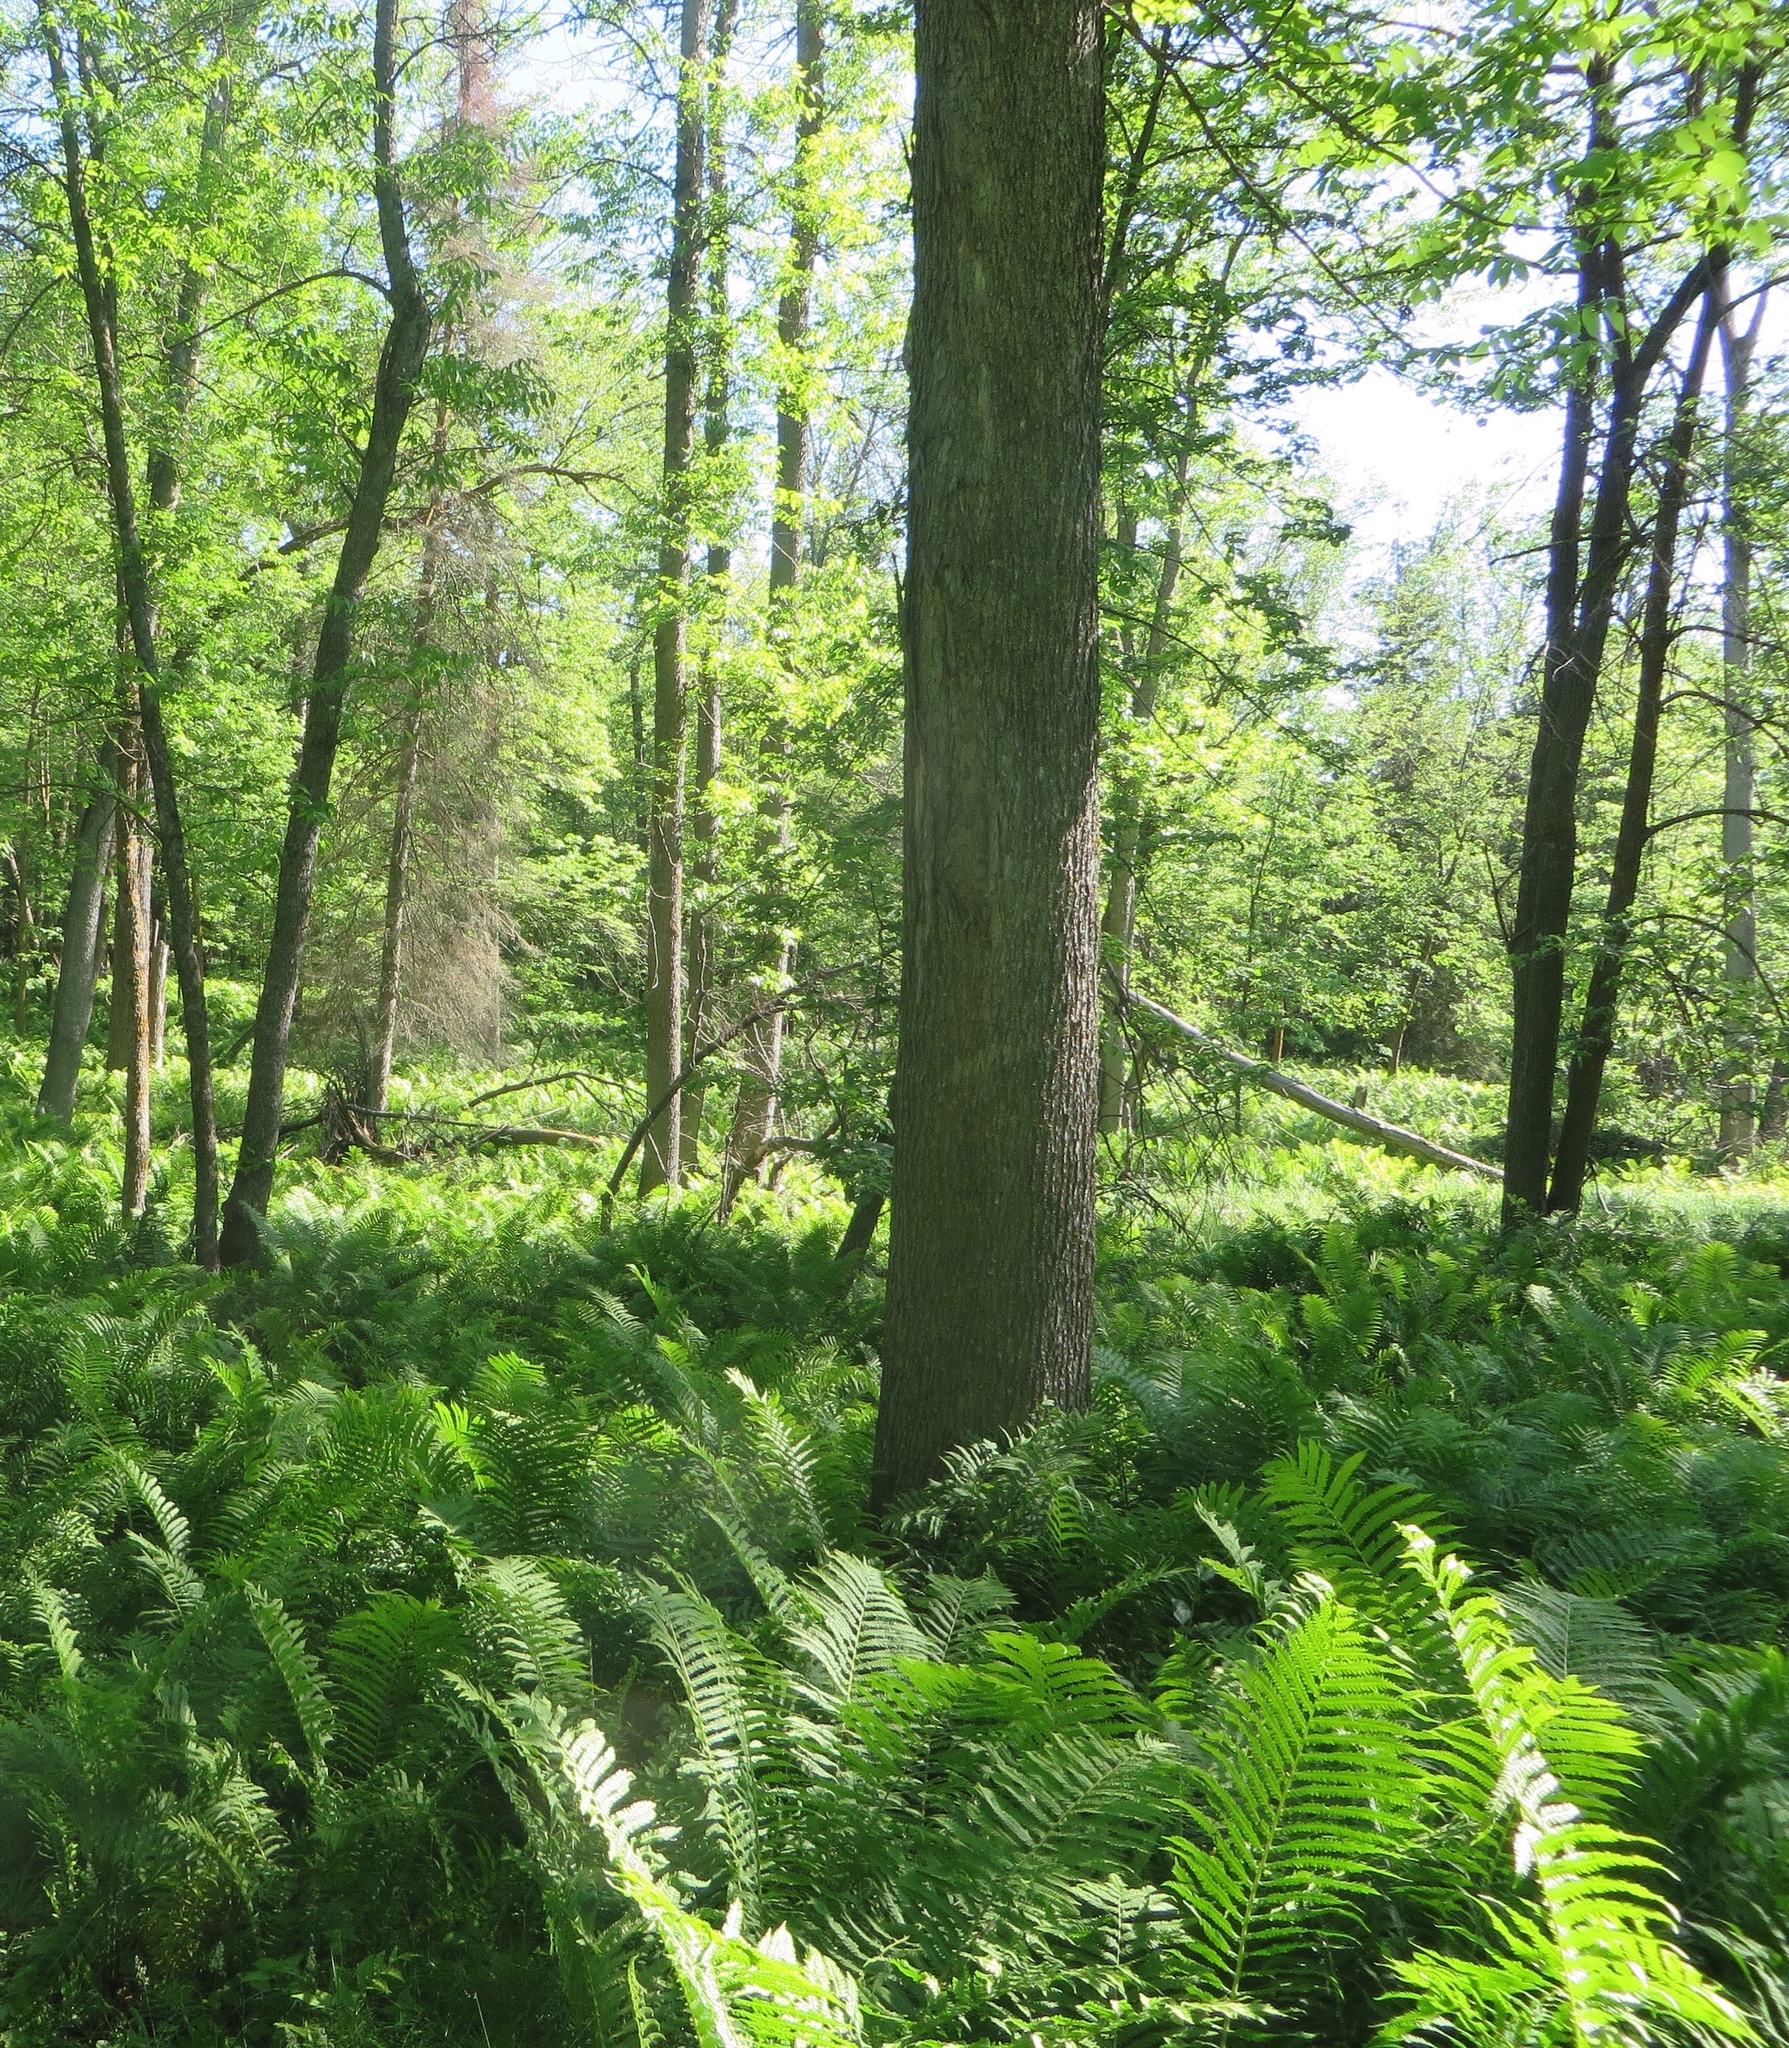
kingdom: Plantae
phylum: Tracheophyta
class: Polypodiopsida
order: Polypodiales
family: Onocleaceae
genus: Matteuccia
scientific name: Matteuccia struthiopteris
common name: Ostrich fern
